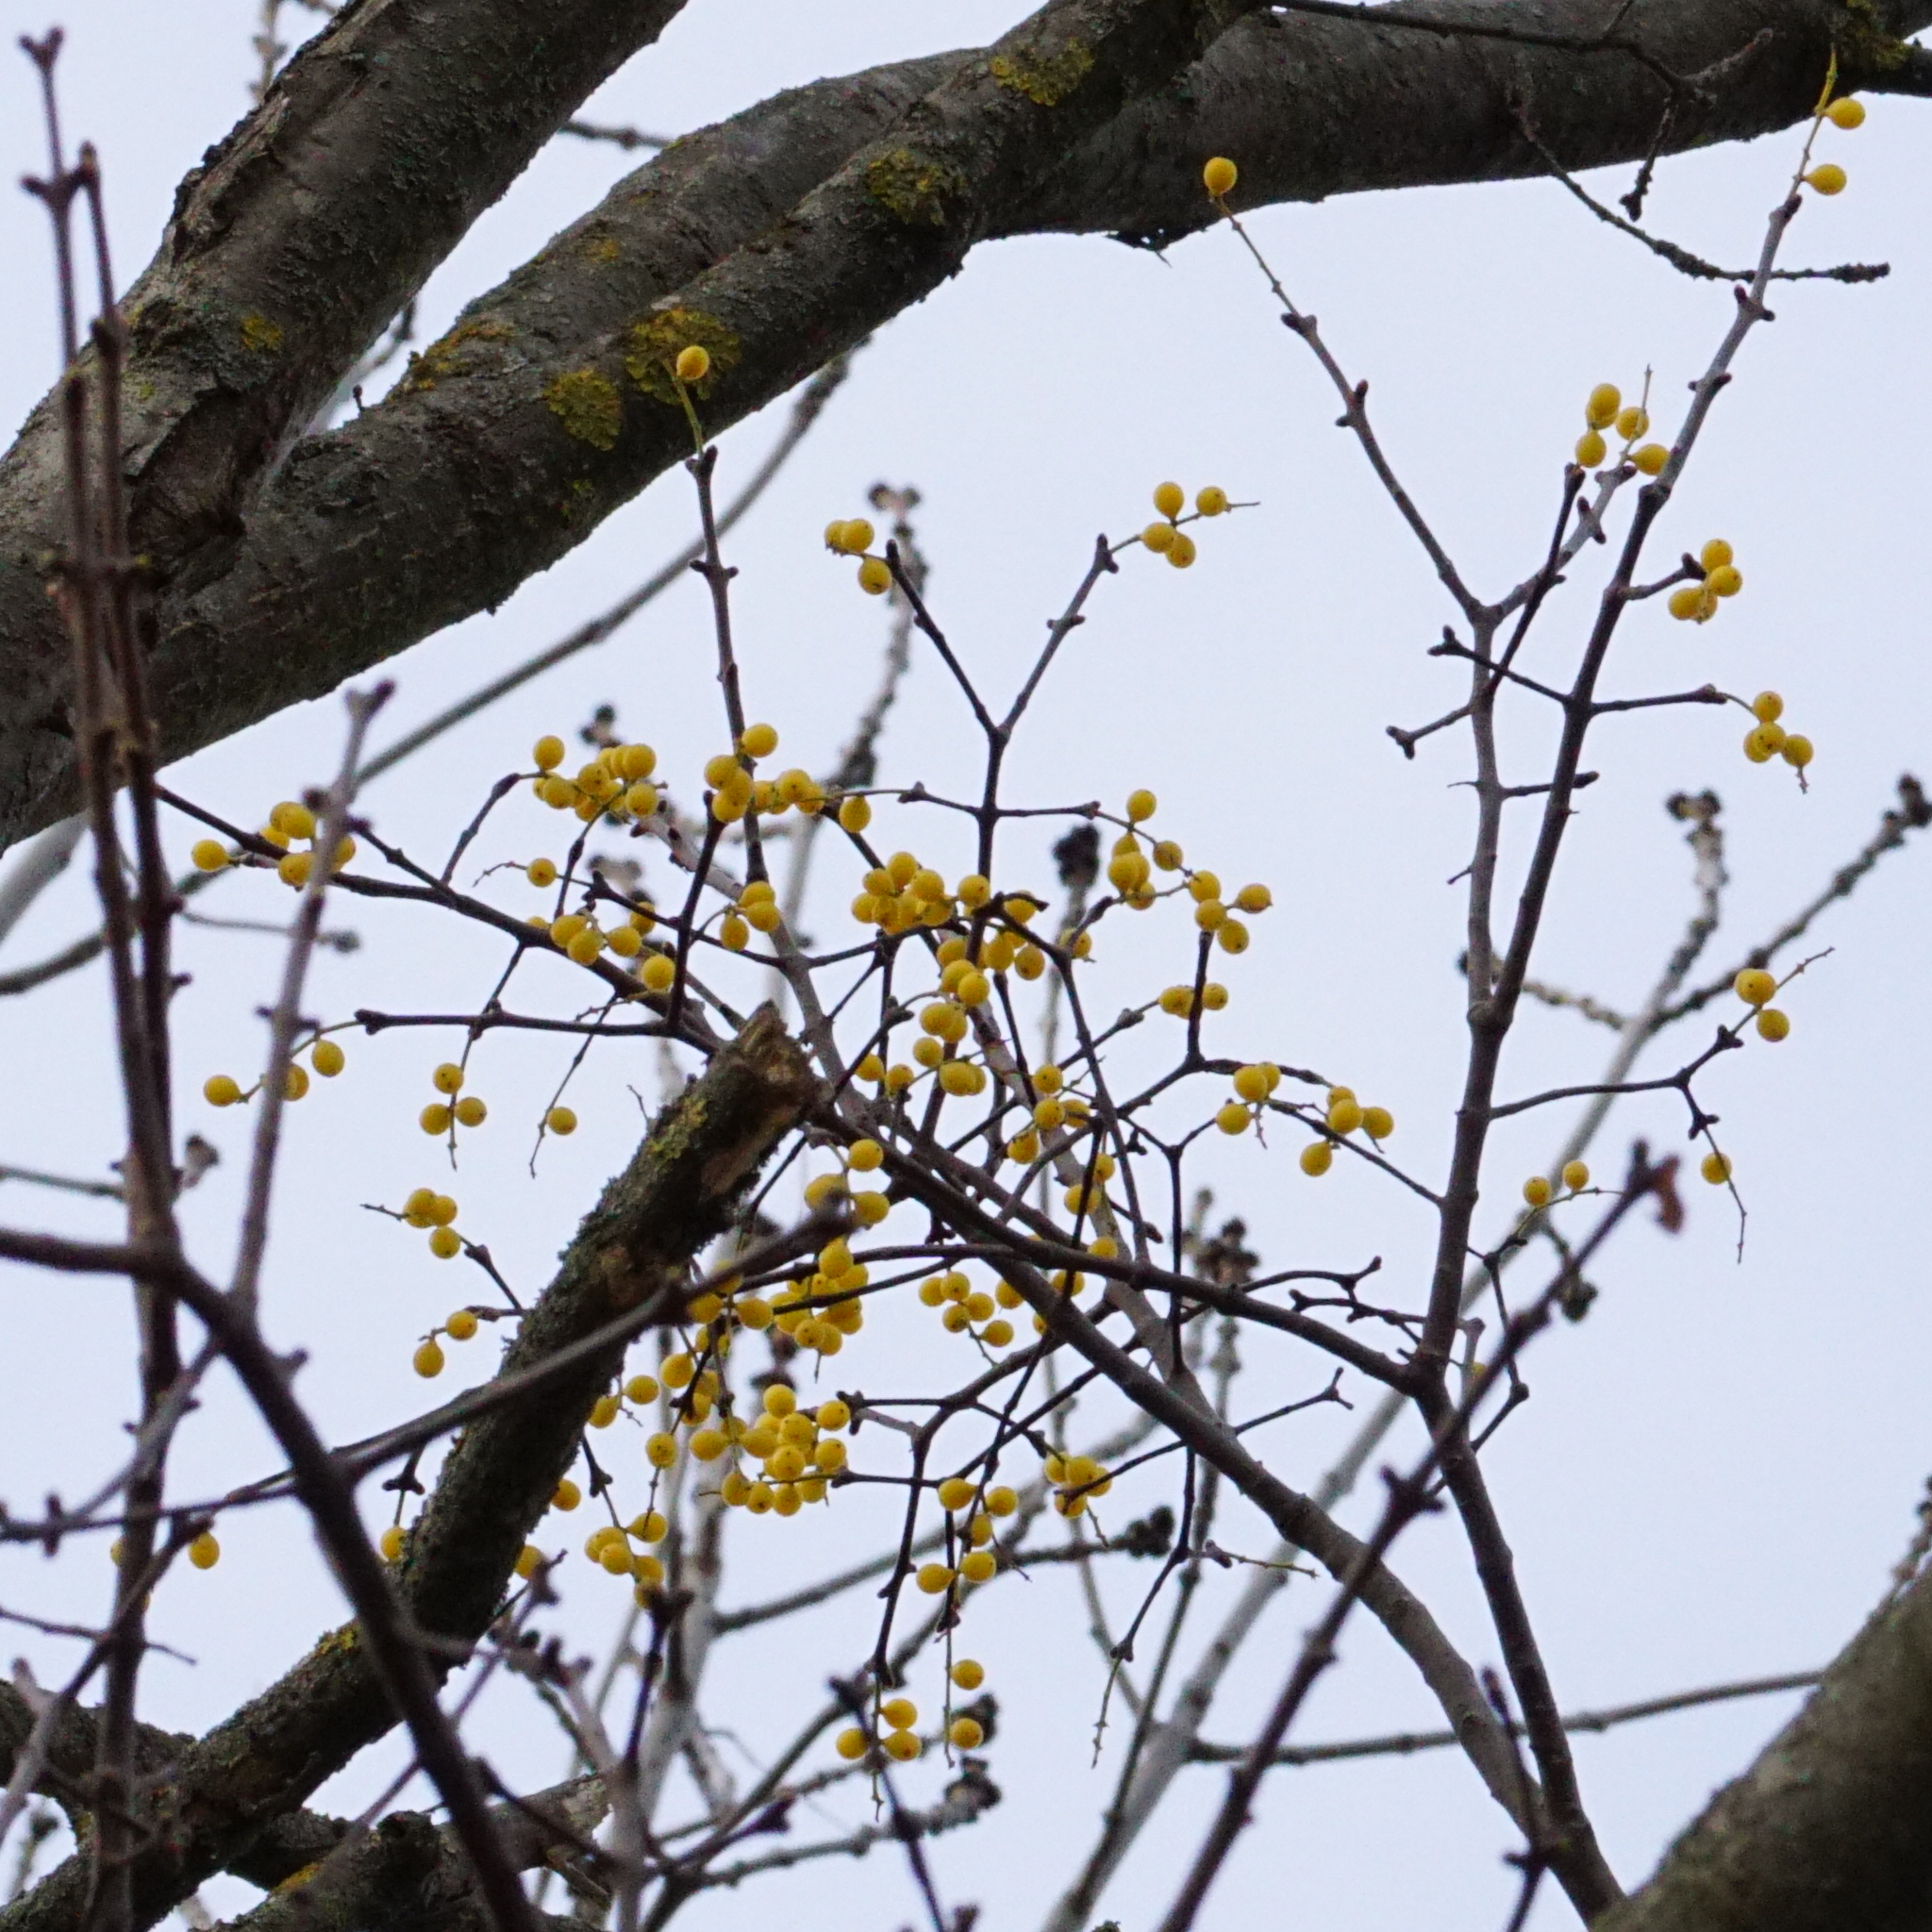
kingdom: Plantae
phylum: Tracheophyta
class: Magnoliopsida
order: Santalales
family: Loranthaceae
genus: Loranthus
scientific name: Loranthus europaeus
